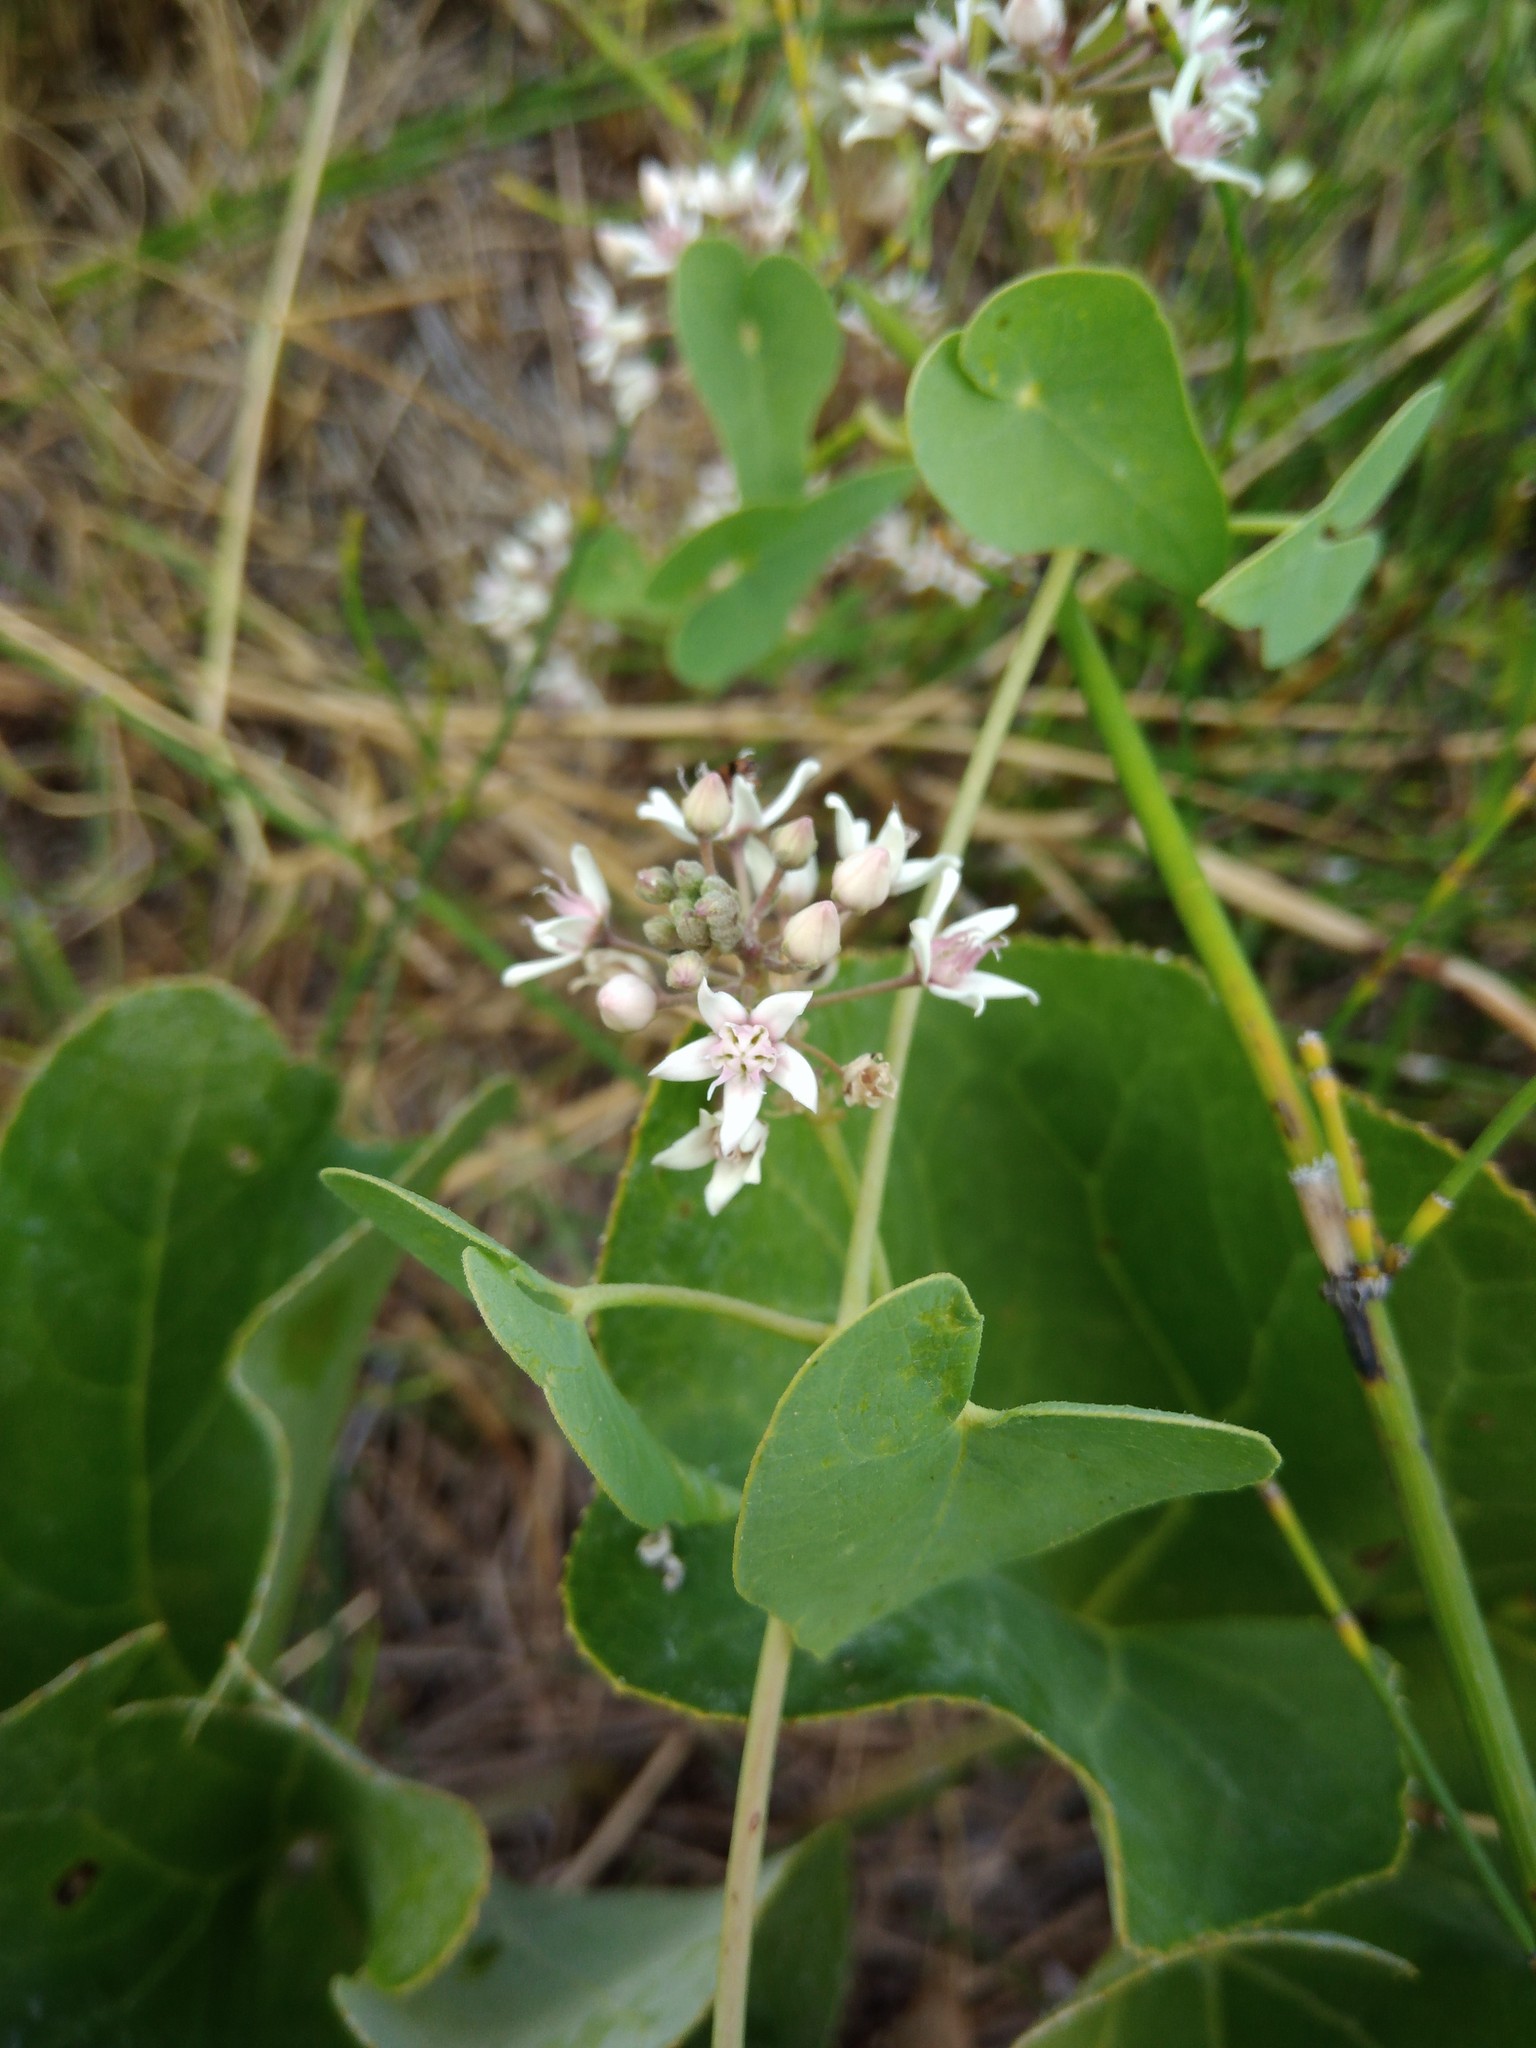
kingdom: Plantae
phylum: Tracheophyta
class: Magnoliopsida
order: Gentianales
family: Apocynaceae
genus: Cynanchum
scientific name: Cynanchum acutum
